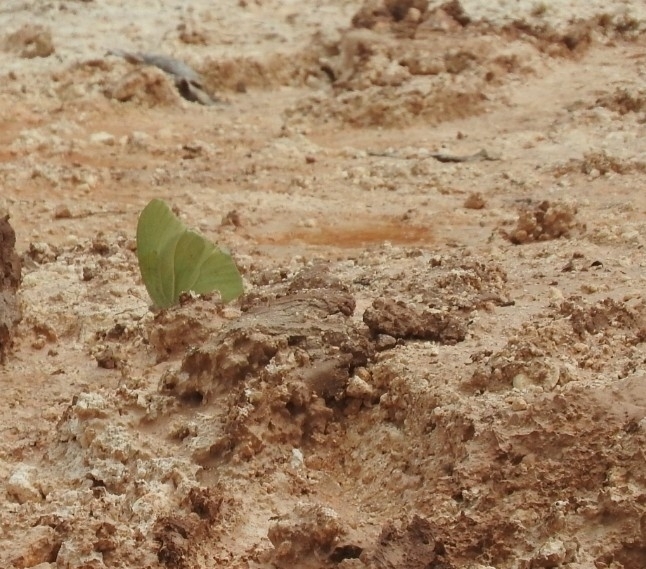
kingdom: Animalia
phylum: Arthropoda
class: Insecta
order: Lepidoptera
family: Pieridae
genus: Anteos
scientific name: Anteos clorinde
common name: White angled sulphur
